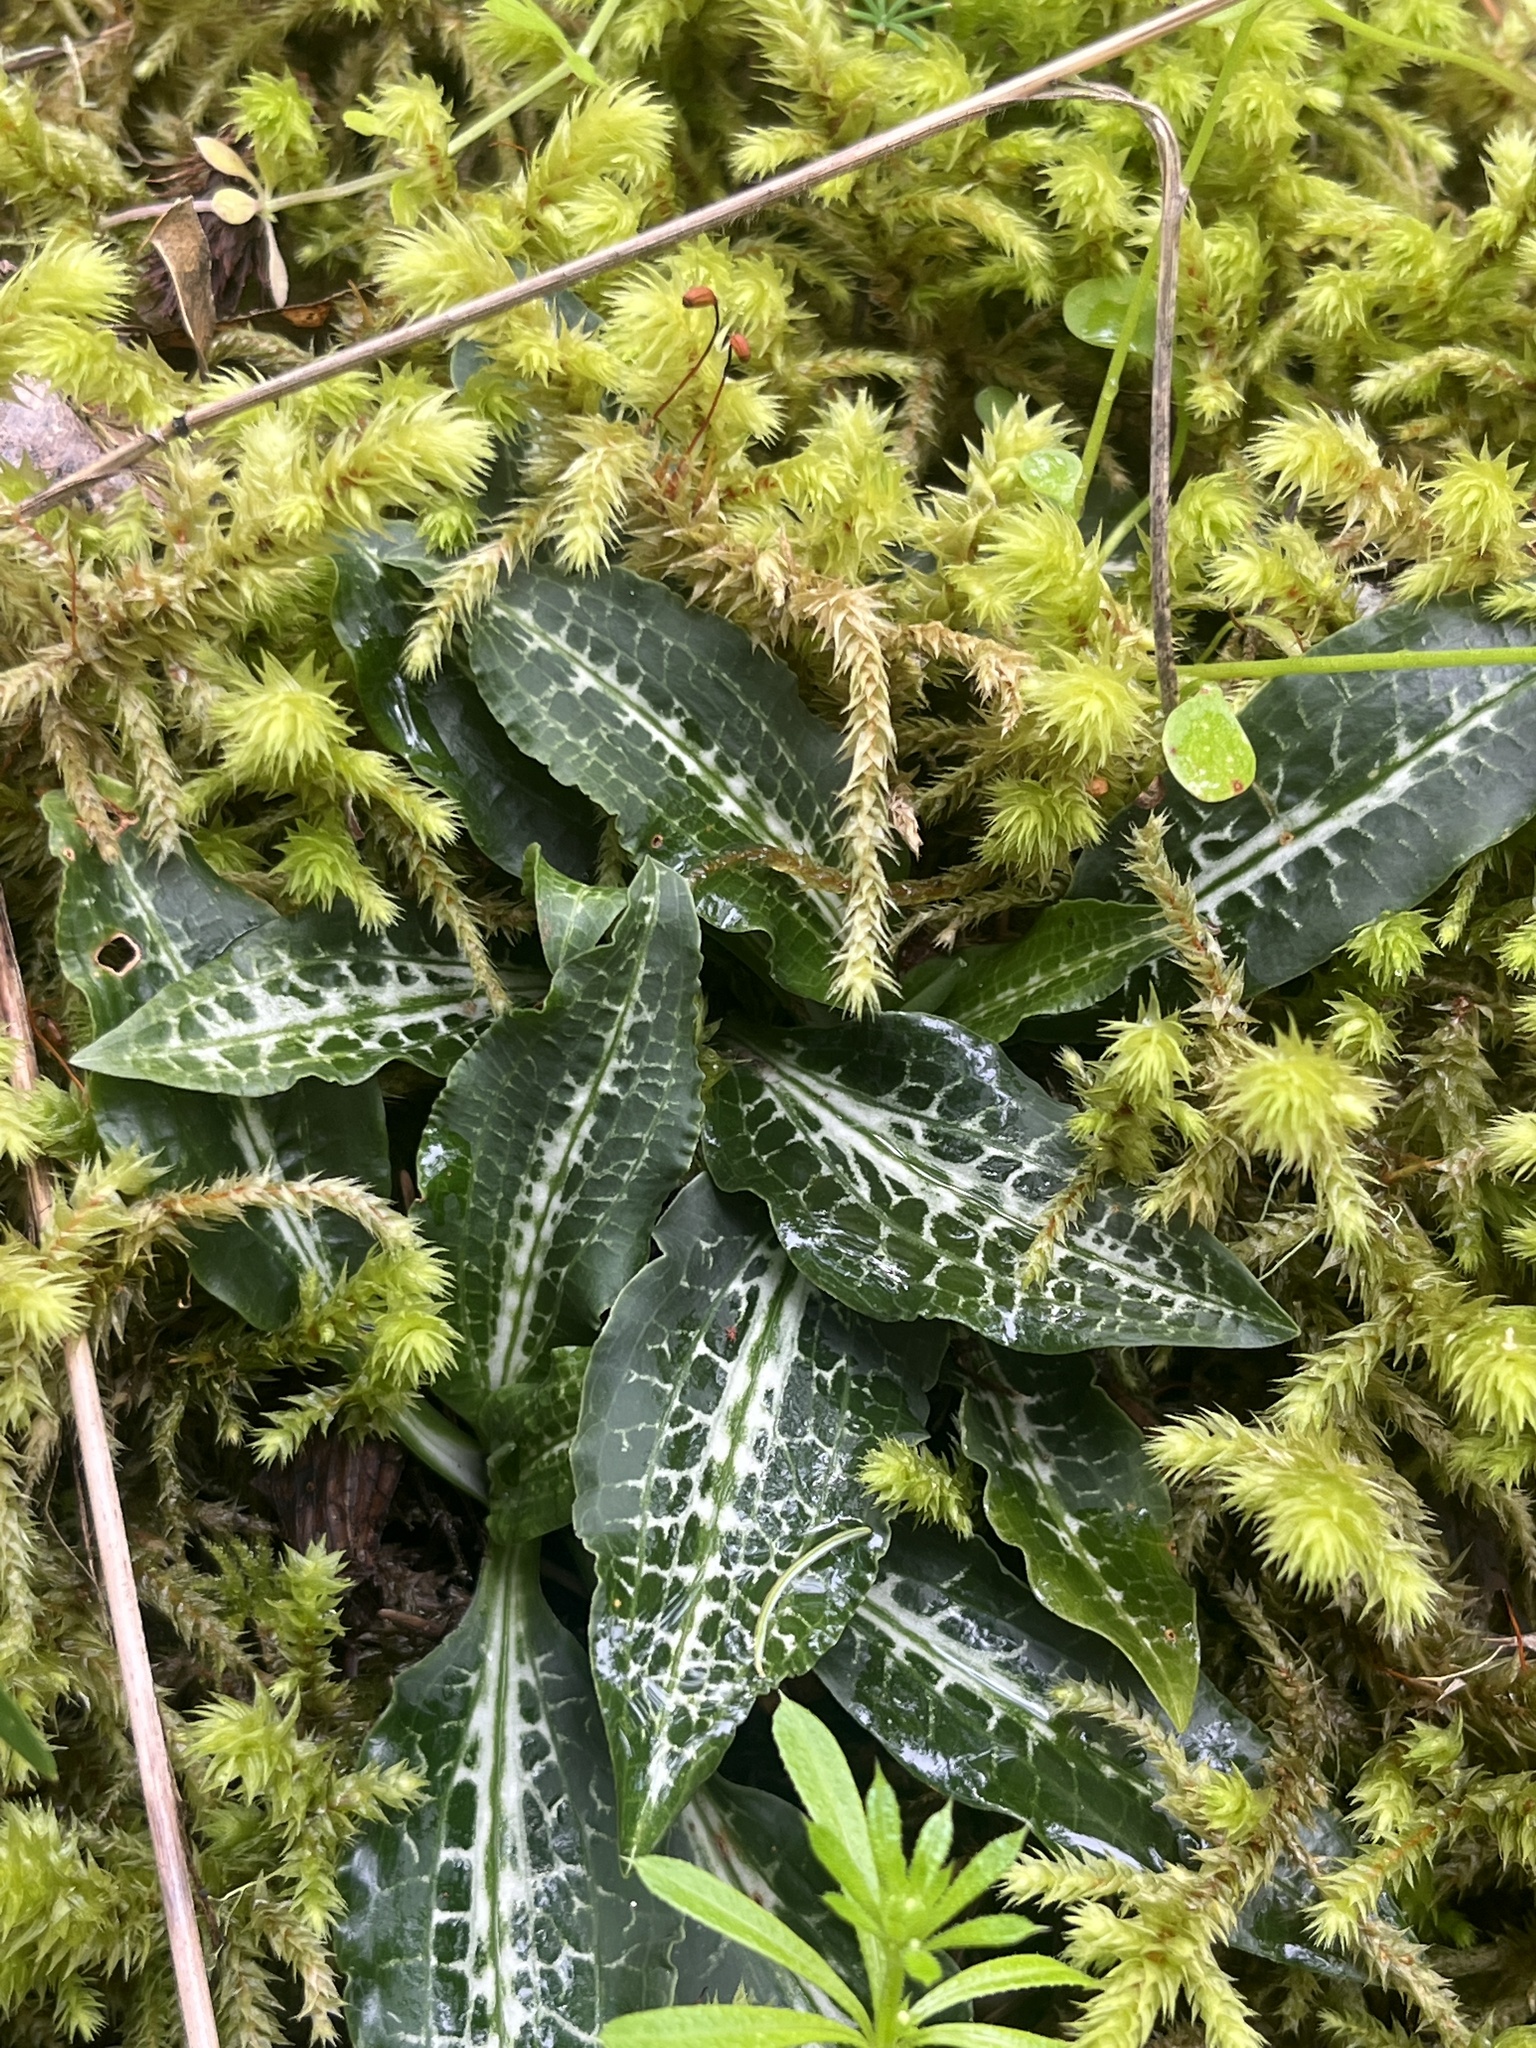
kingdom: Plantae
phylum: Tracheophyta
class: Liliopsida
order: Asparagales
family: Orchidaceae
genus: Goodyera
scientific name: Goodyera oblongifolia
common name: Giant rattlesnake-plantain
